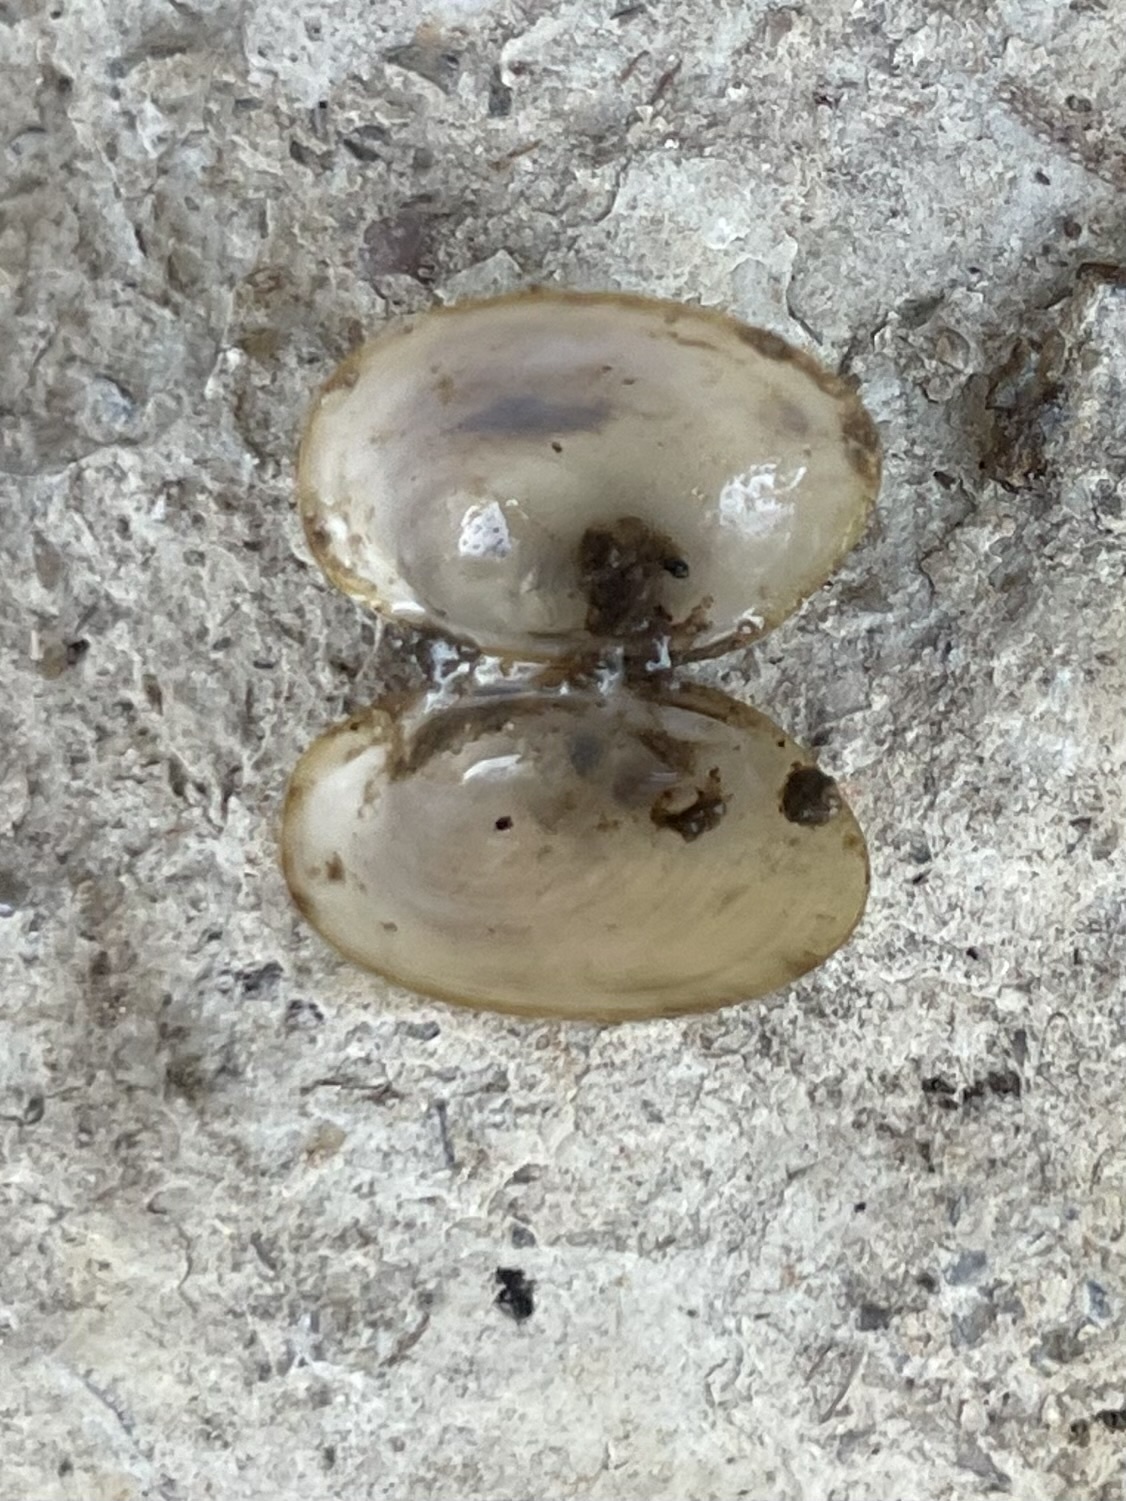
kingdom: Animalia
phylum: Mollusca
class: Bivalvia
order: Sphaeriida
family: Sphaeriidae
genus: Sphaerium
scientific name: Sphaerium striatinum
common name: Striated fingernailclam
